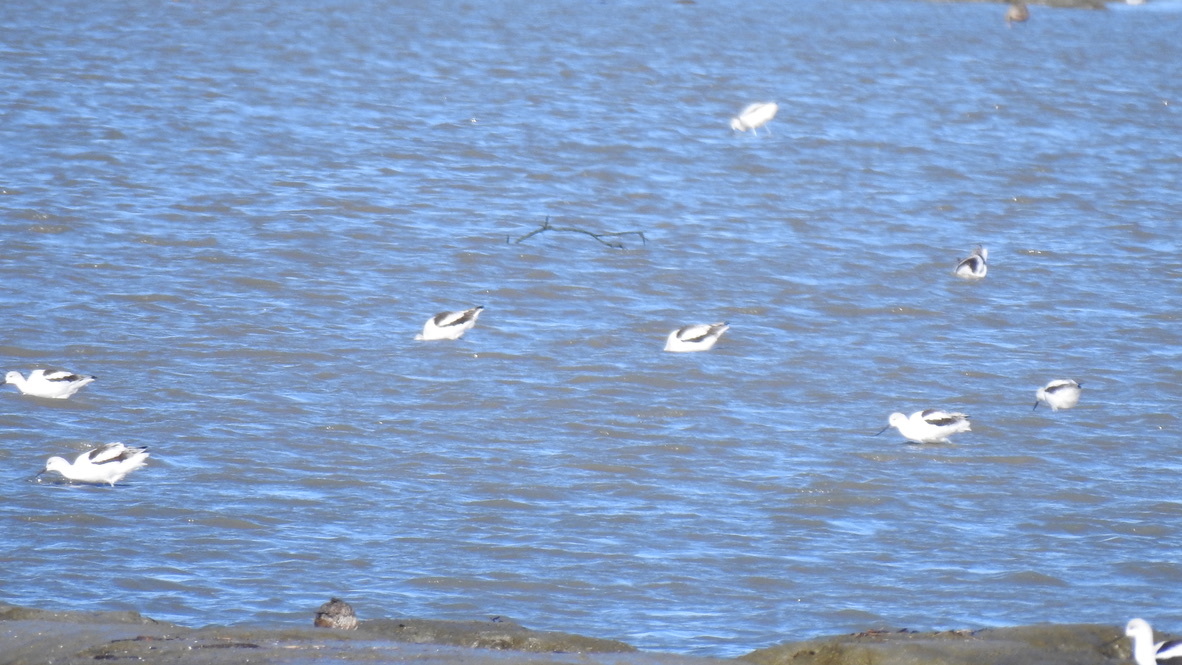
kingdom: Animalia
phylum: Chordata
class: Aves
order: Charadriiformes
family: Recurvirostridae
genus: Recurvirostra
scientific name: Recurvirostra americana
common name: American avocet
